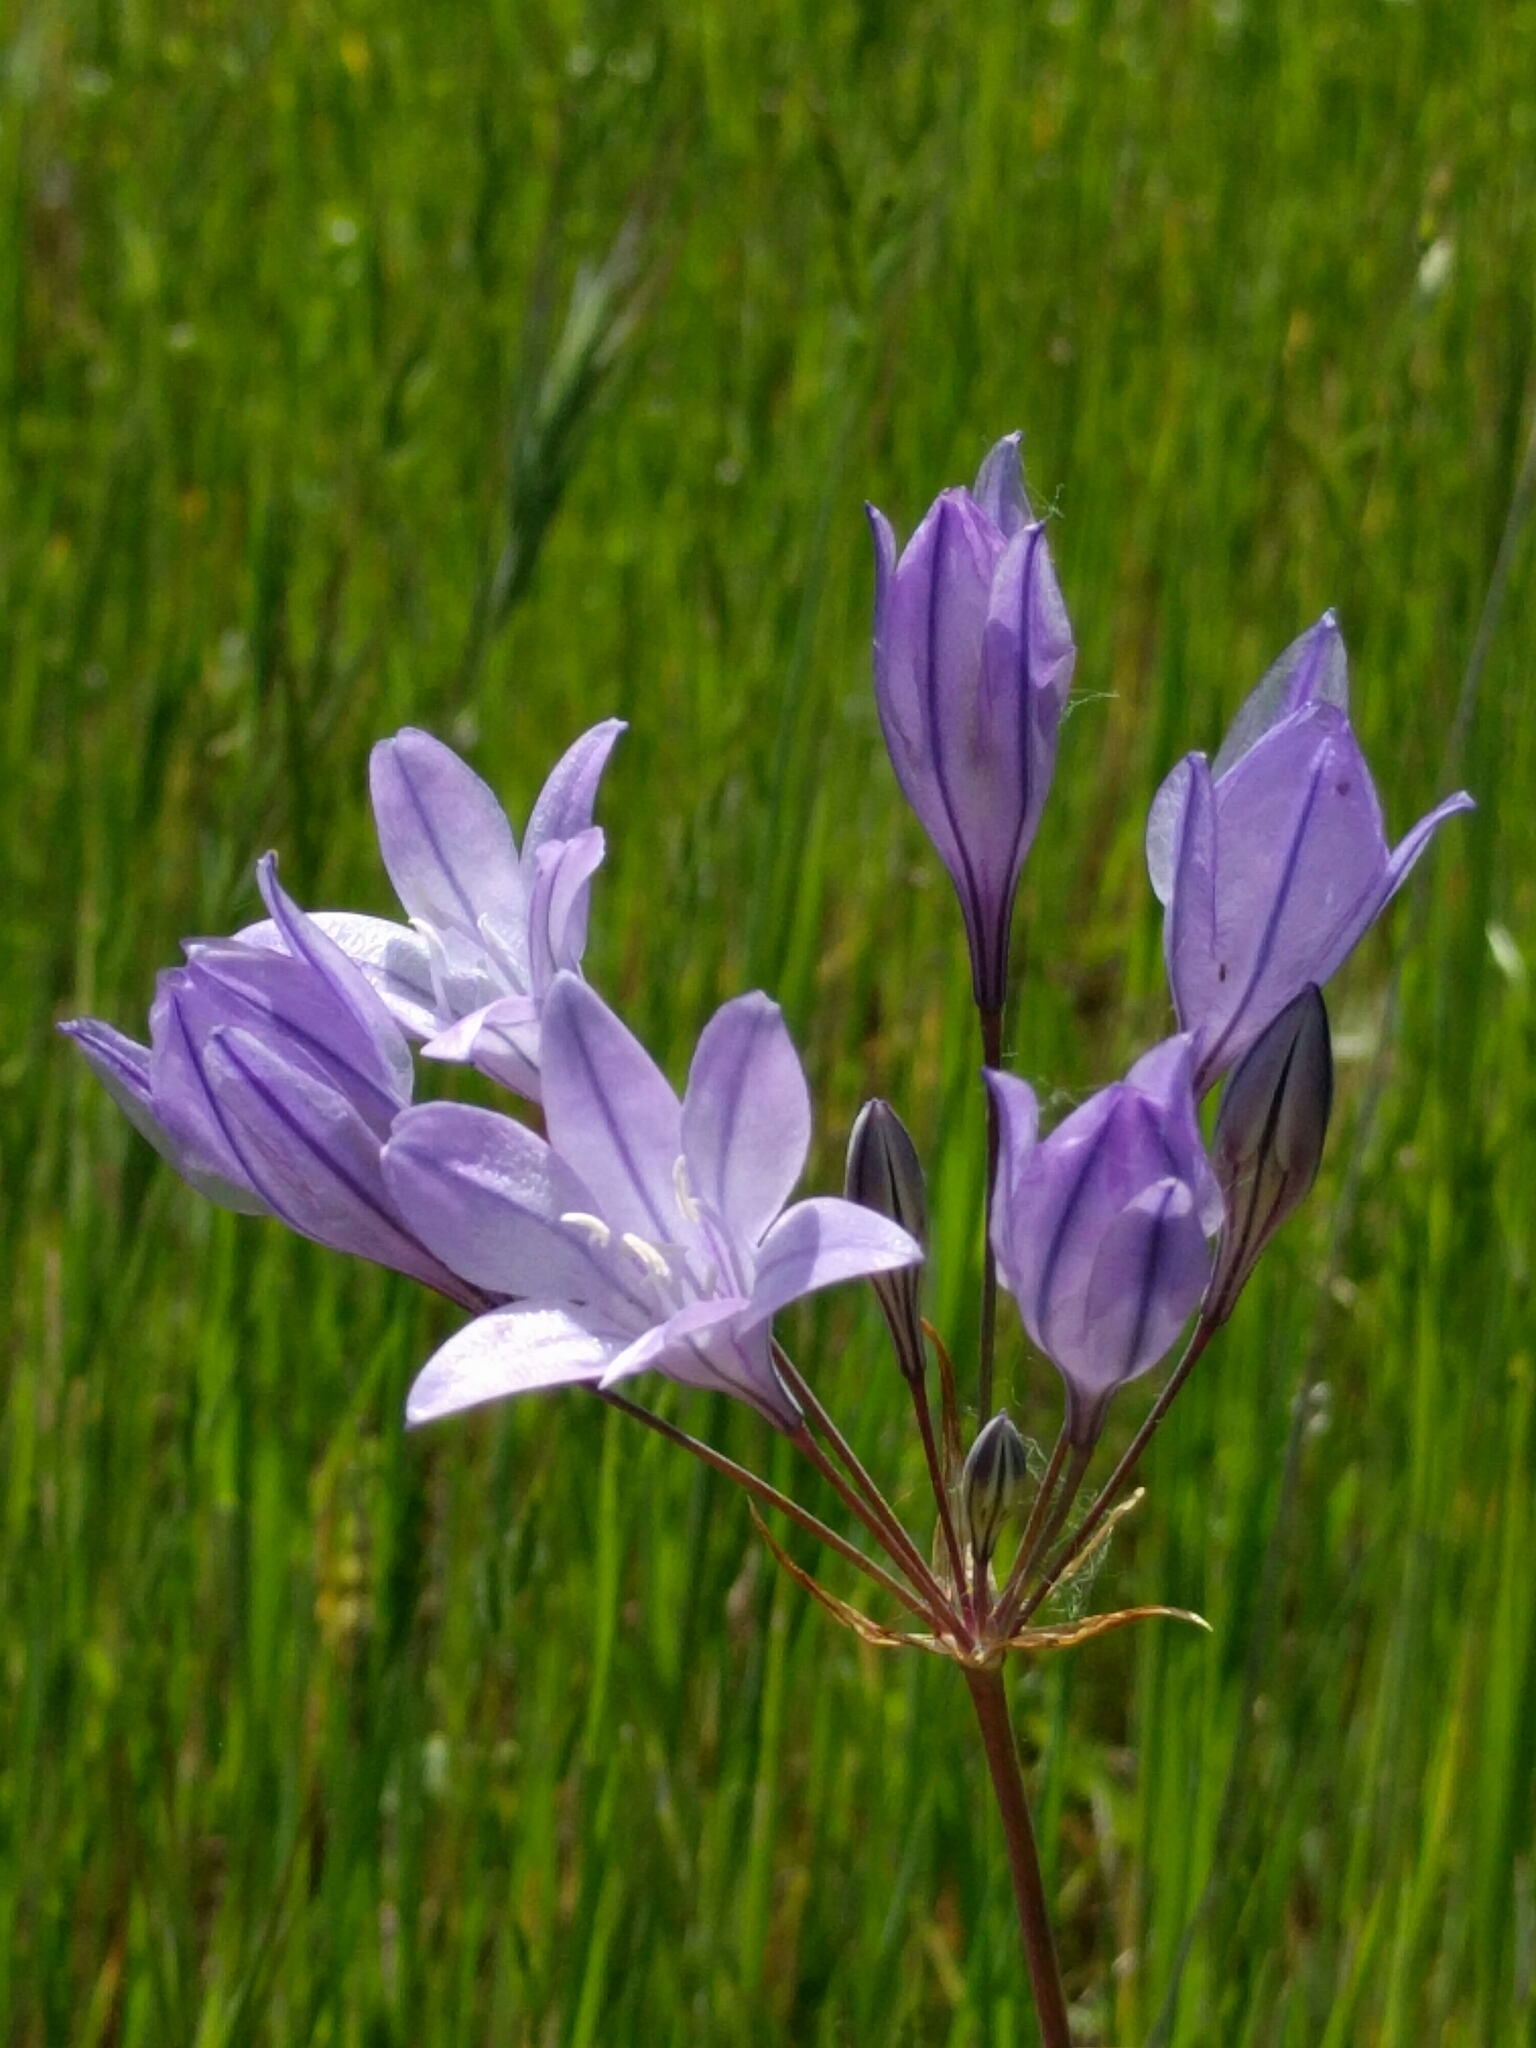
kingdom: Plantae
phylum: Tracheophyta
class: Liliopsida
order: Asparagales
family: Asparagaceae
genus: Triteleia
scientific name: Triteleia laxa
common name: Triplet-lily
